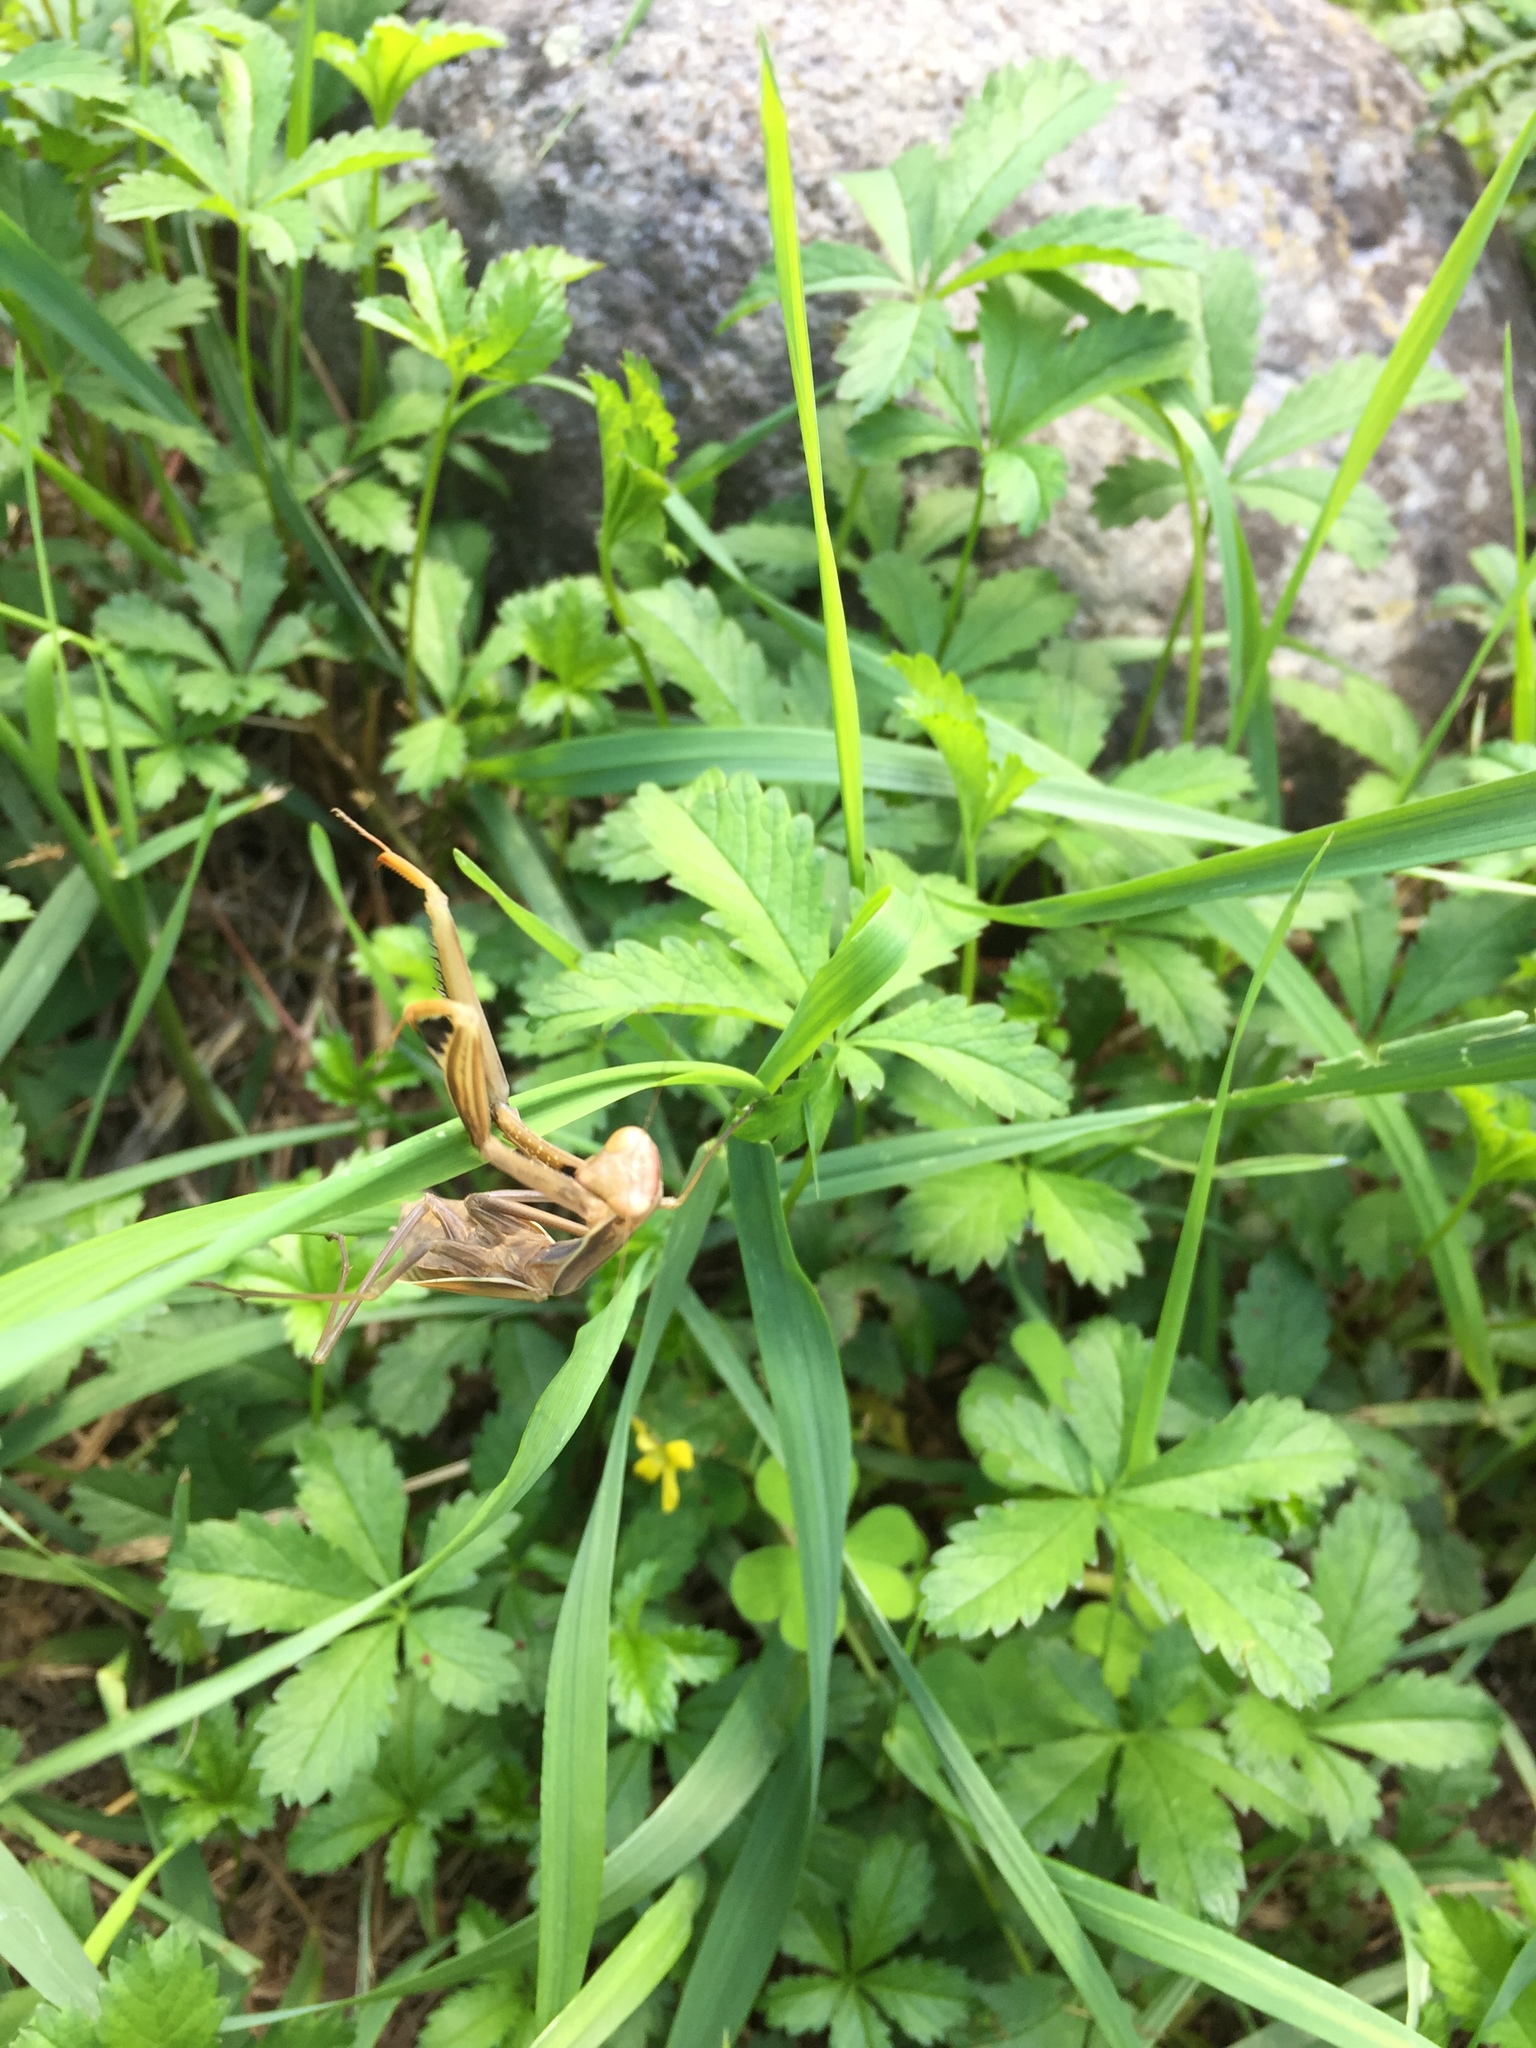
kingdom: Animalia
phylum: Arthropoda
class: Insecta
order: Mantodea
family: Mantidae
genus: Mantis
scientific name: Mantis religiosa
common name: Praying mantis
